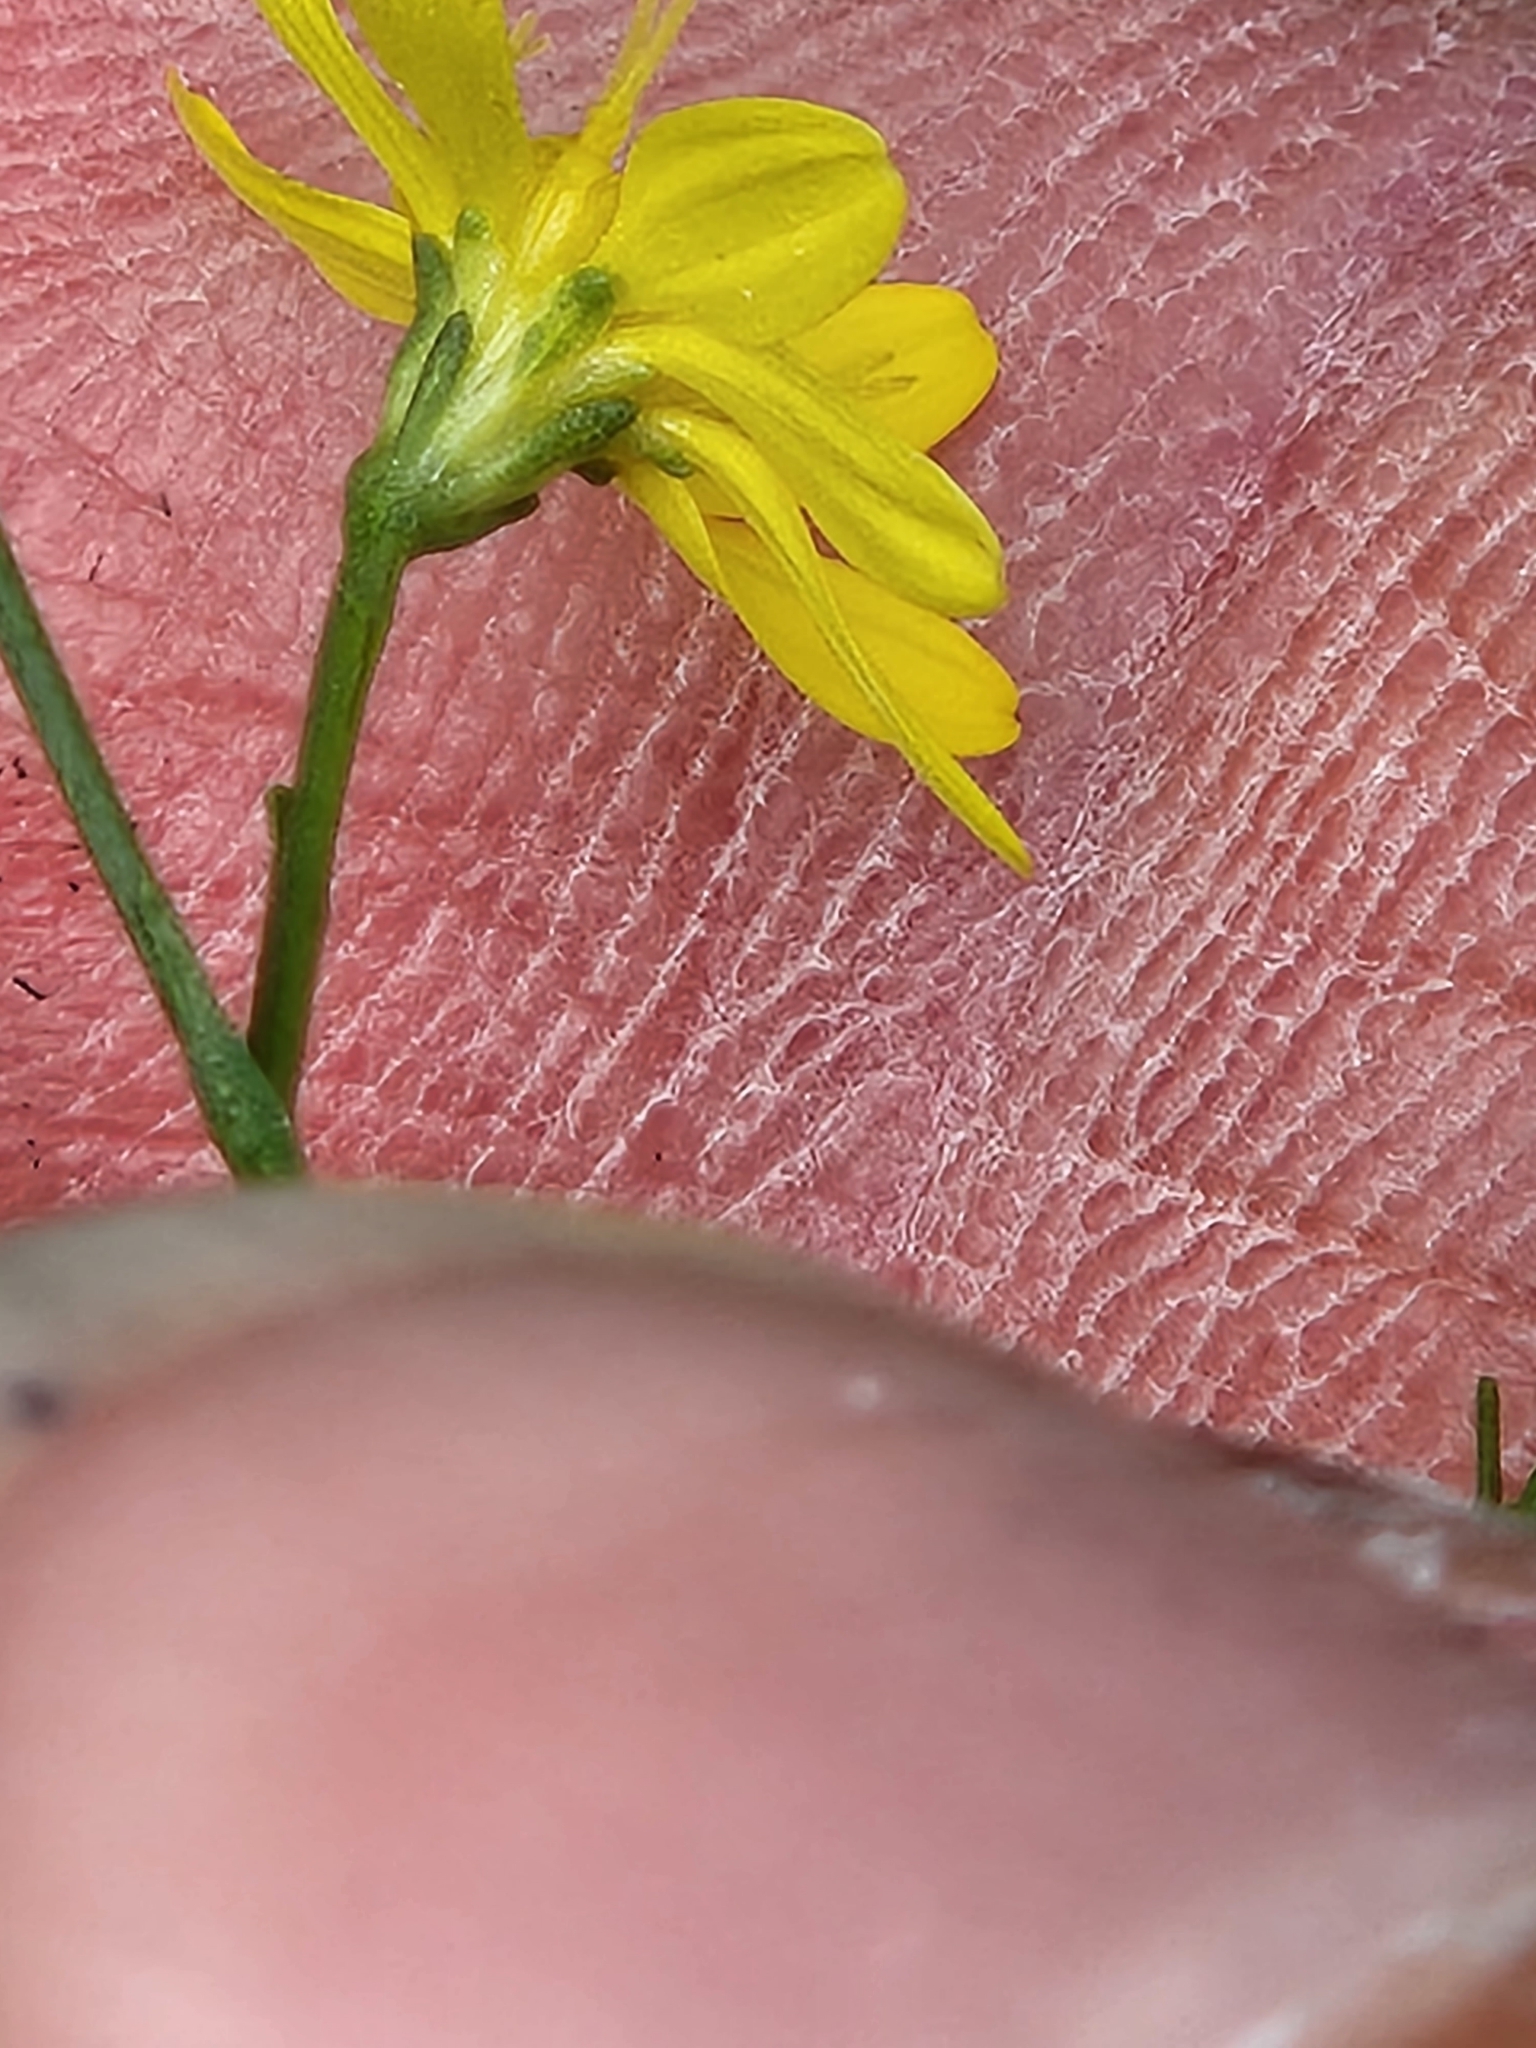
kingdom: Plantae
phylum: Tracheophyta
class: Magnoliopsida
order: Asterales
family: Asteraceae
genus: Gutierrezia
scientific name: Gutierrezia texana
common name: Texas snakeweed
